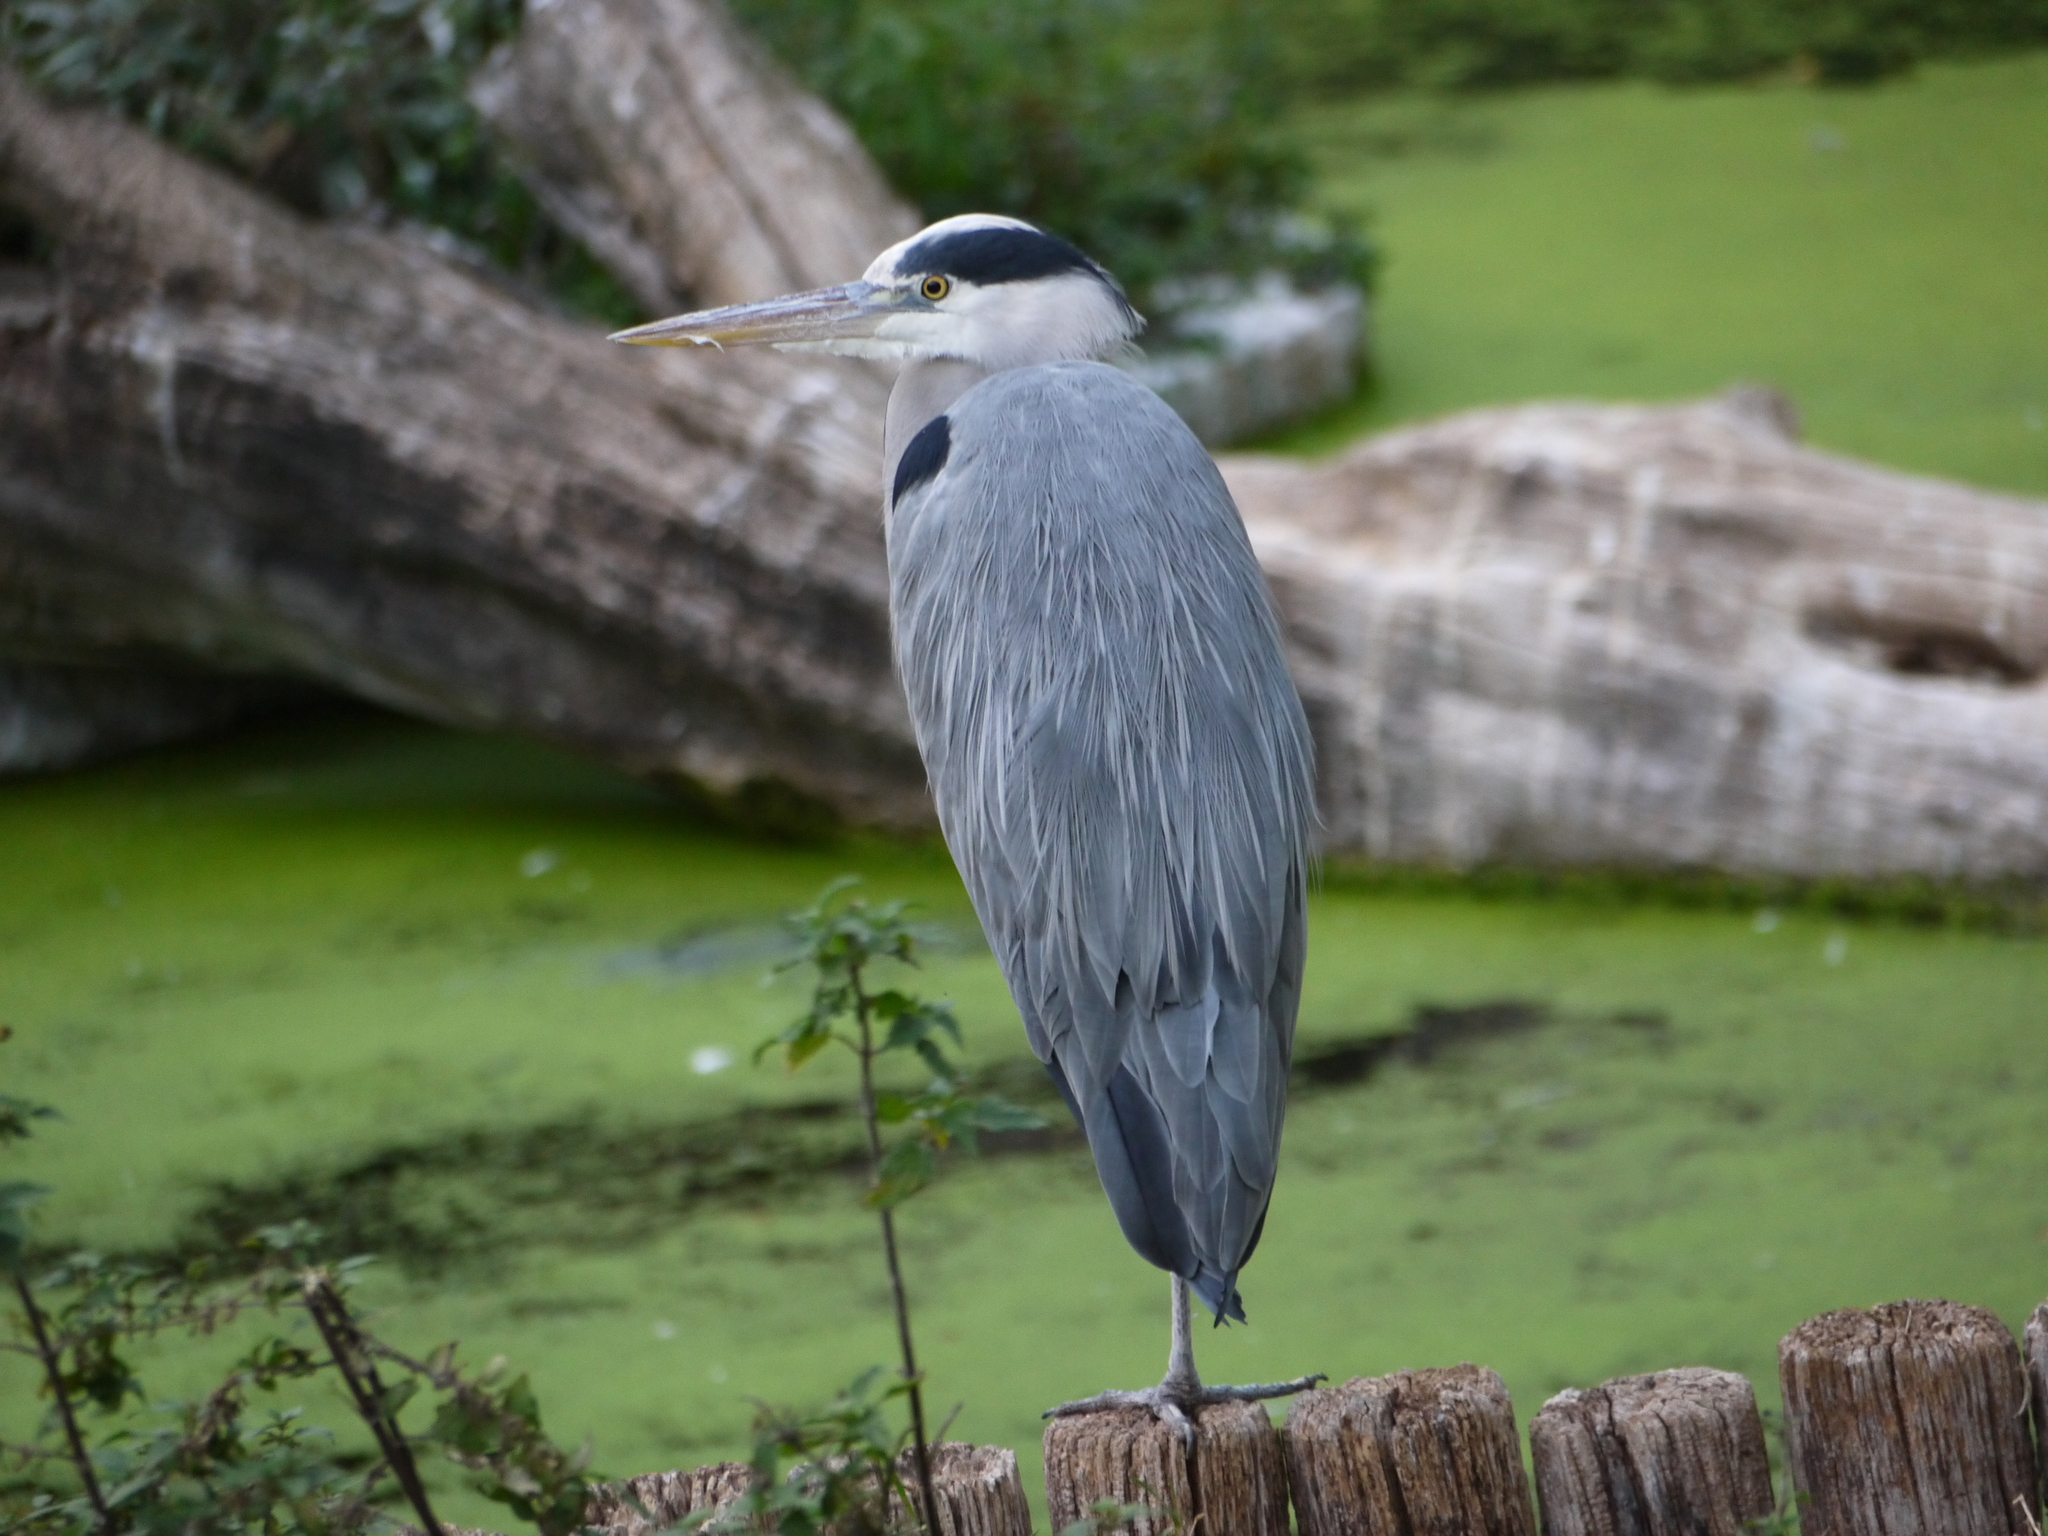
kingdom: Animalia
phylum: Chordata
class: Aves
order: Pelecaniformes
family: Ardeidae
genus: Ardea
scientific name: Ardea cinerea
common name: Grey heron
